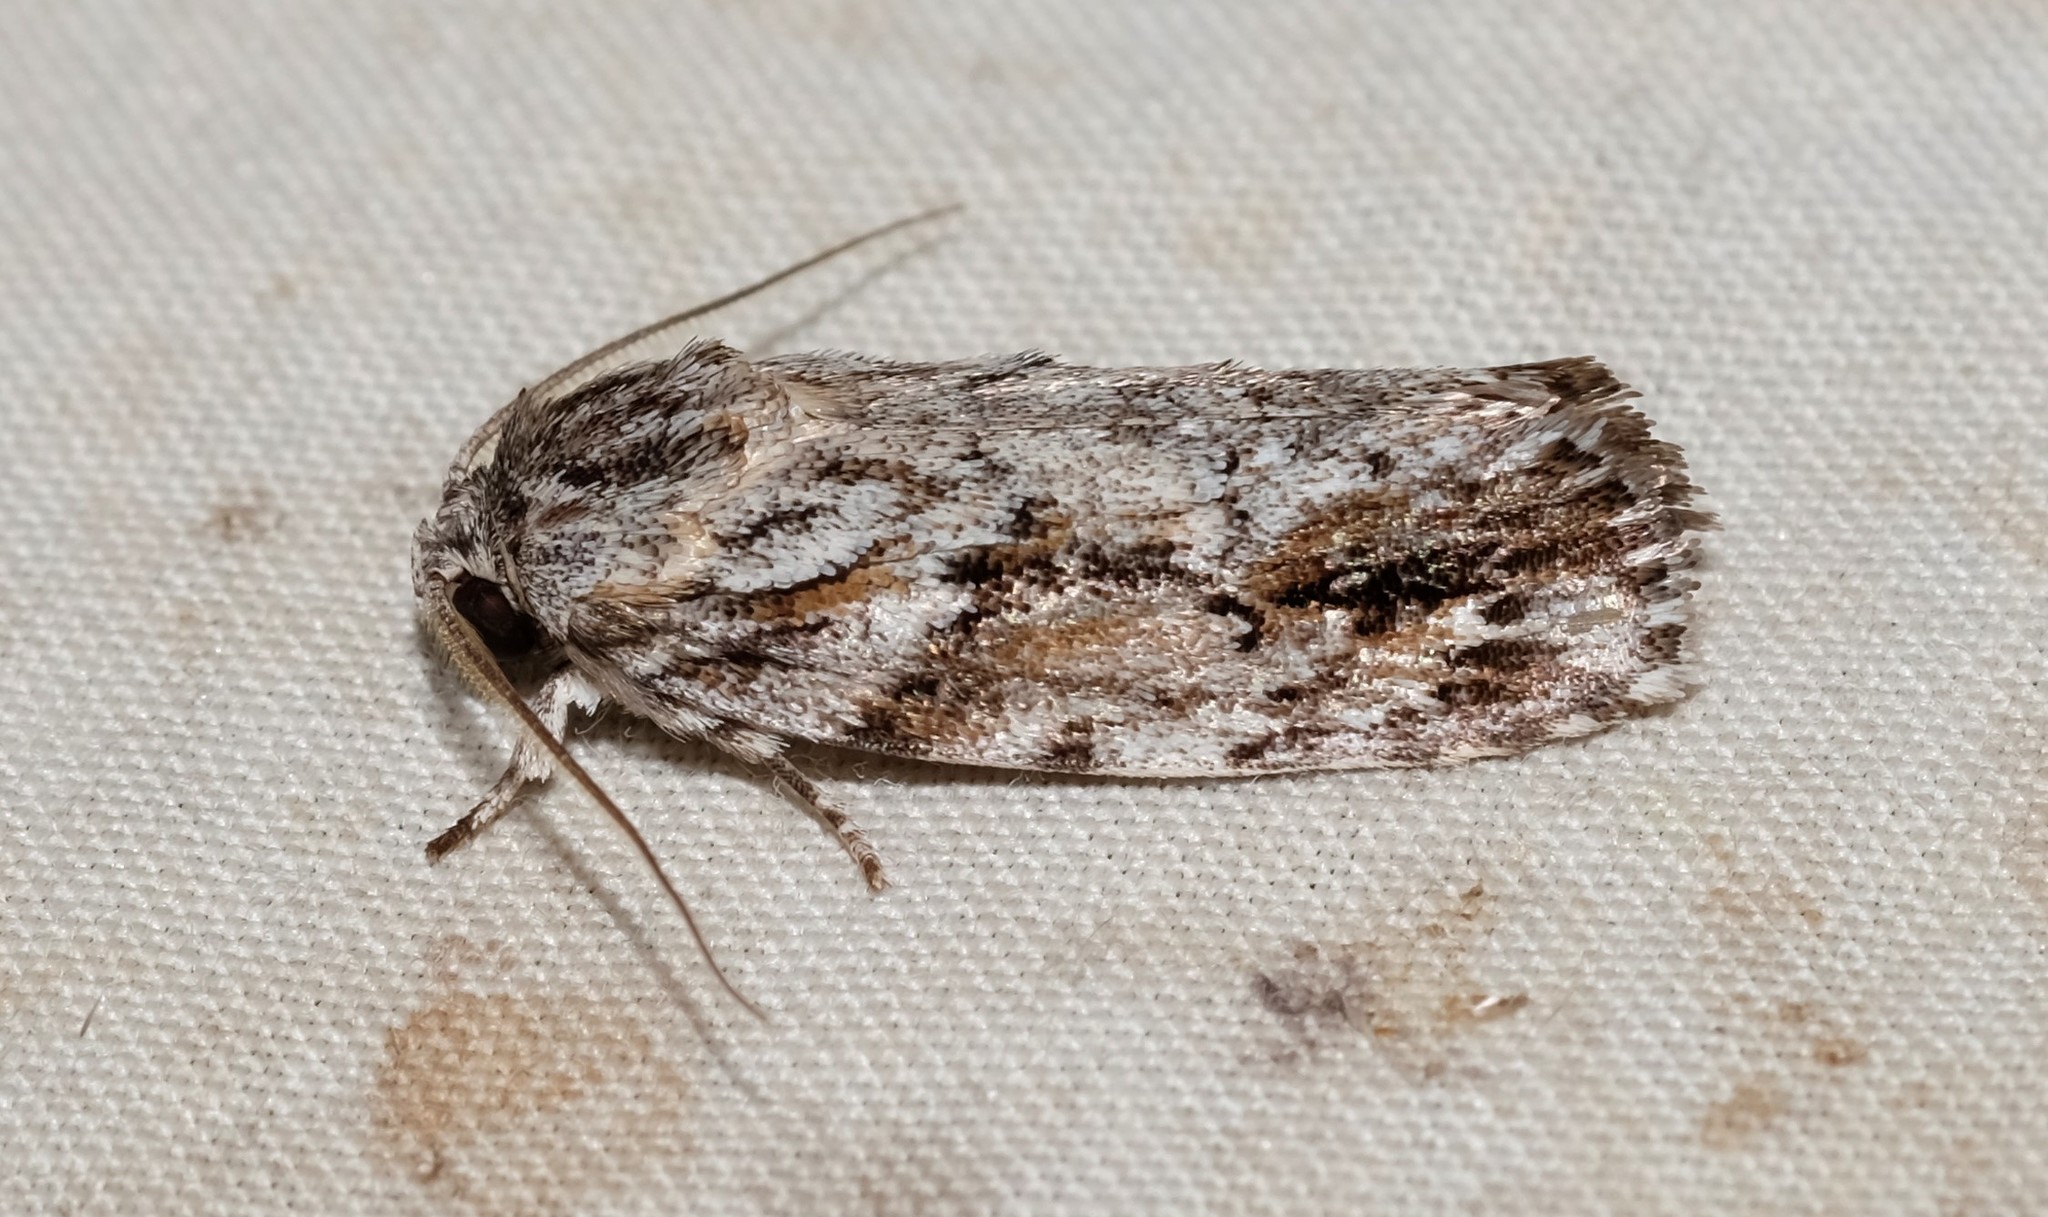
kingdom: Animalia
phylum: Arthropoda
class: Insecta
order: Lepidoptera
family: Depressariidae
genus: Agriophara
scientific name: Agriophara cinerosa
